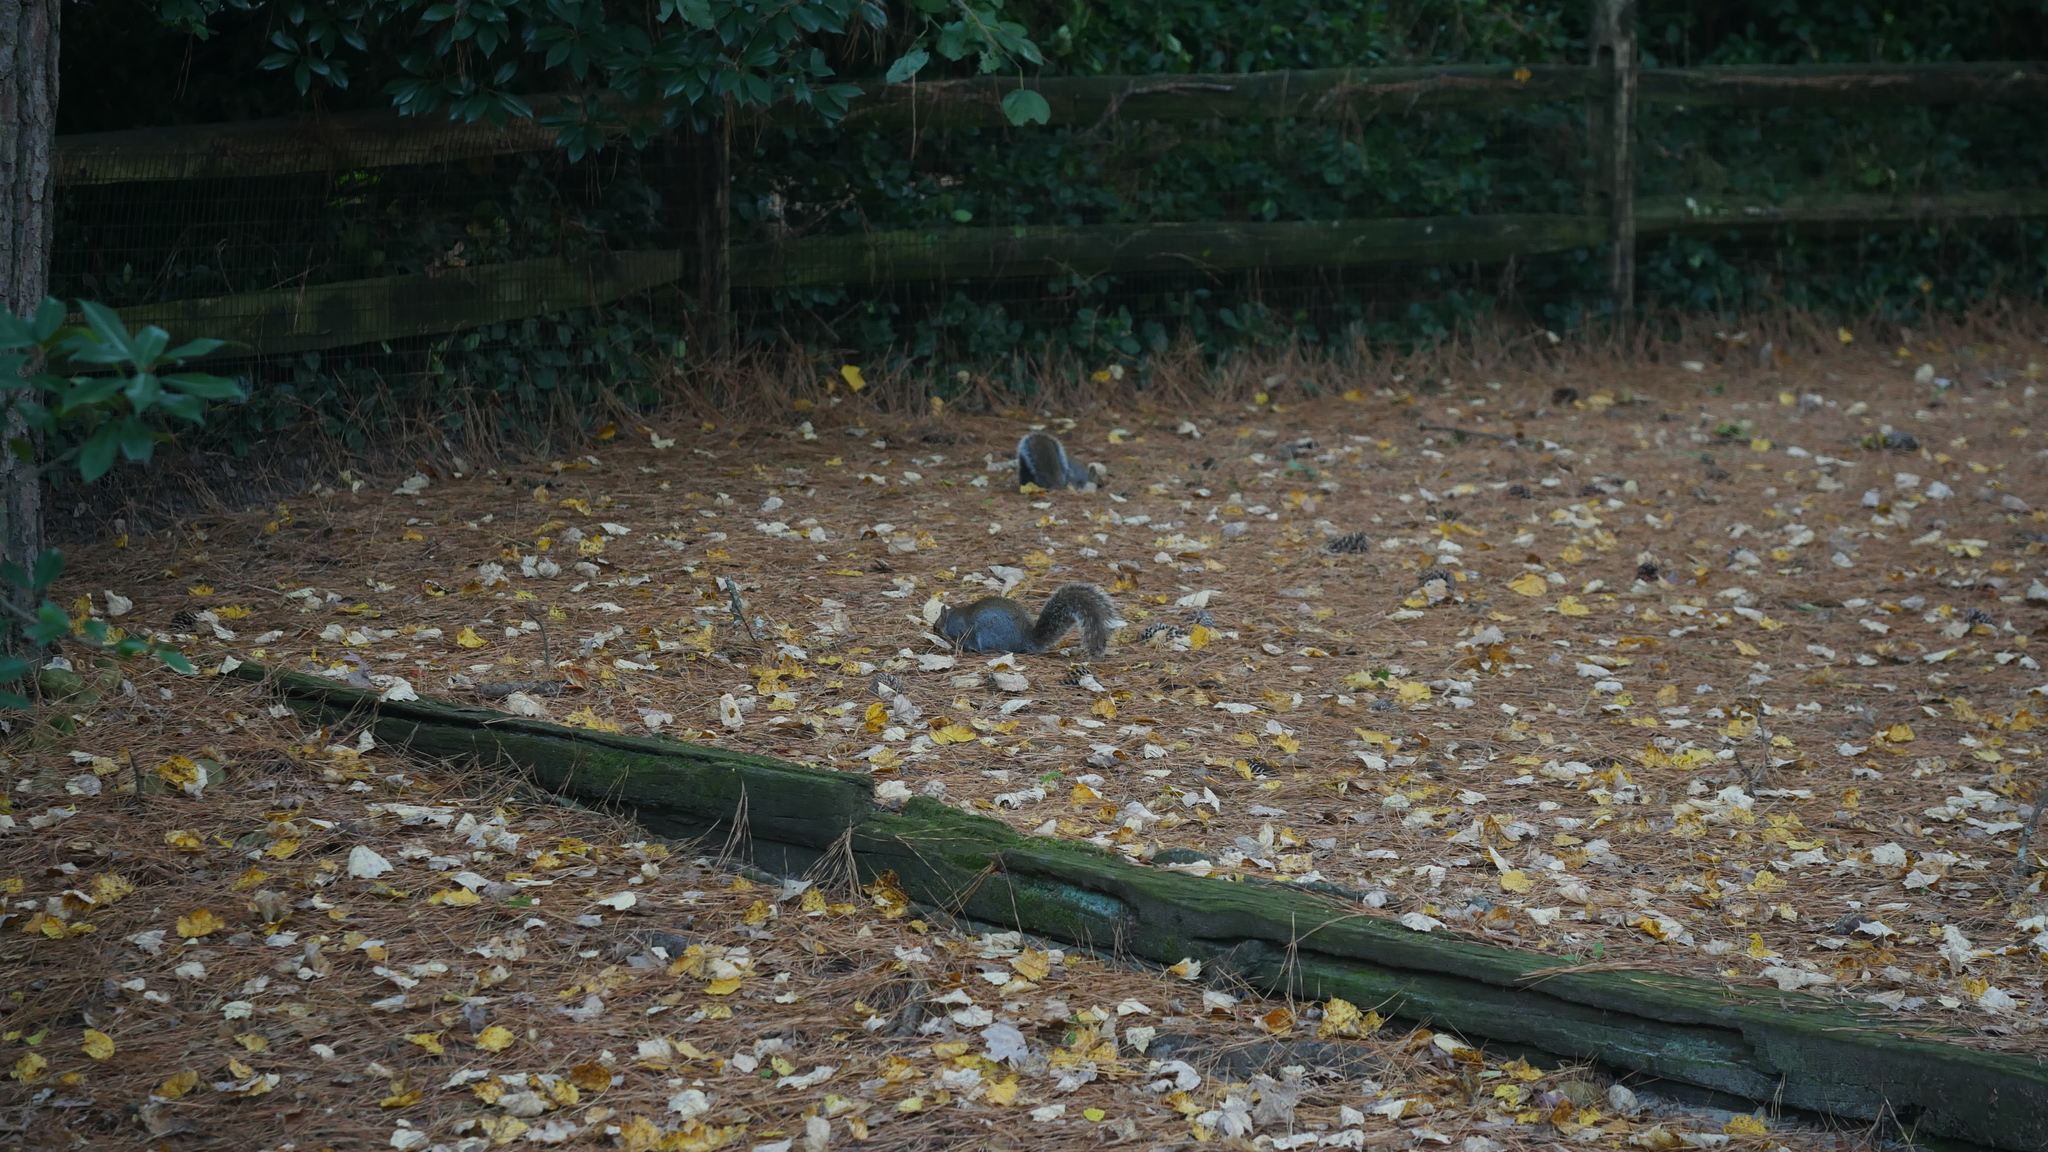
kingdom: Animalia
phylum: Chordata
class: Mammalia
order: Rodentia
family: Sciuridae
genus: Sciurus
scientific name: Sciurus carolinensis
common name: Eastern gray squirrel
